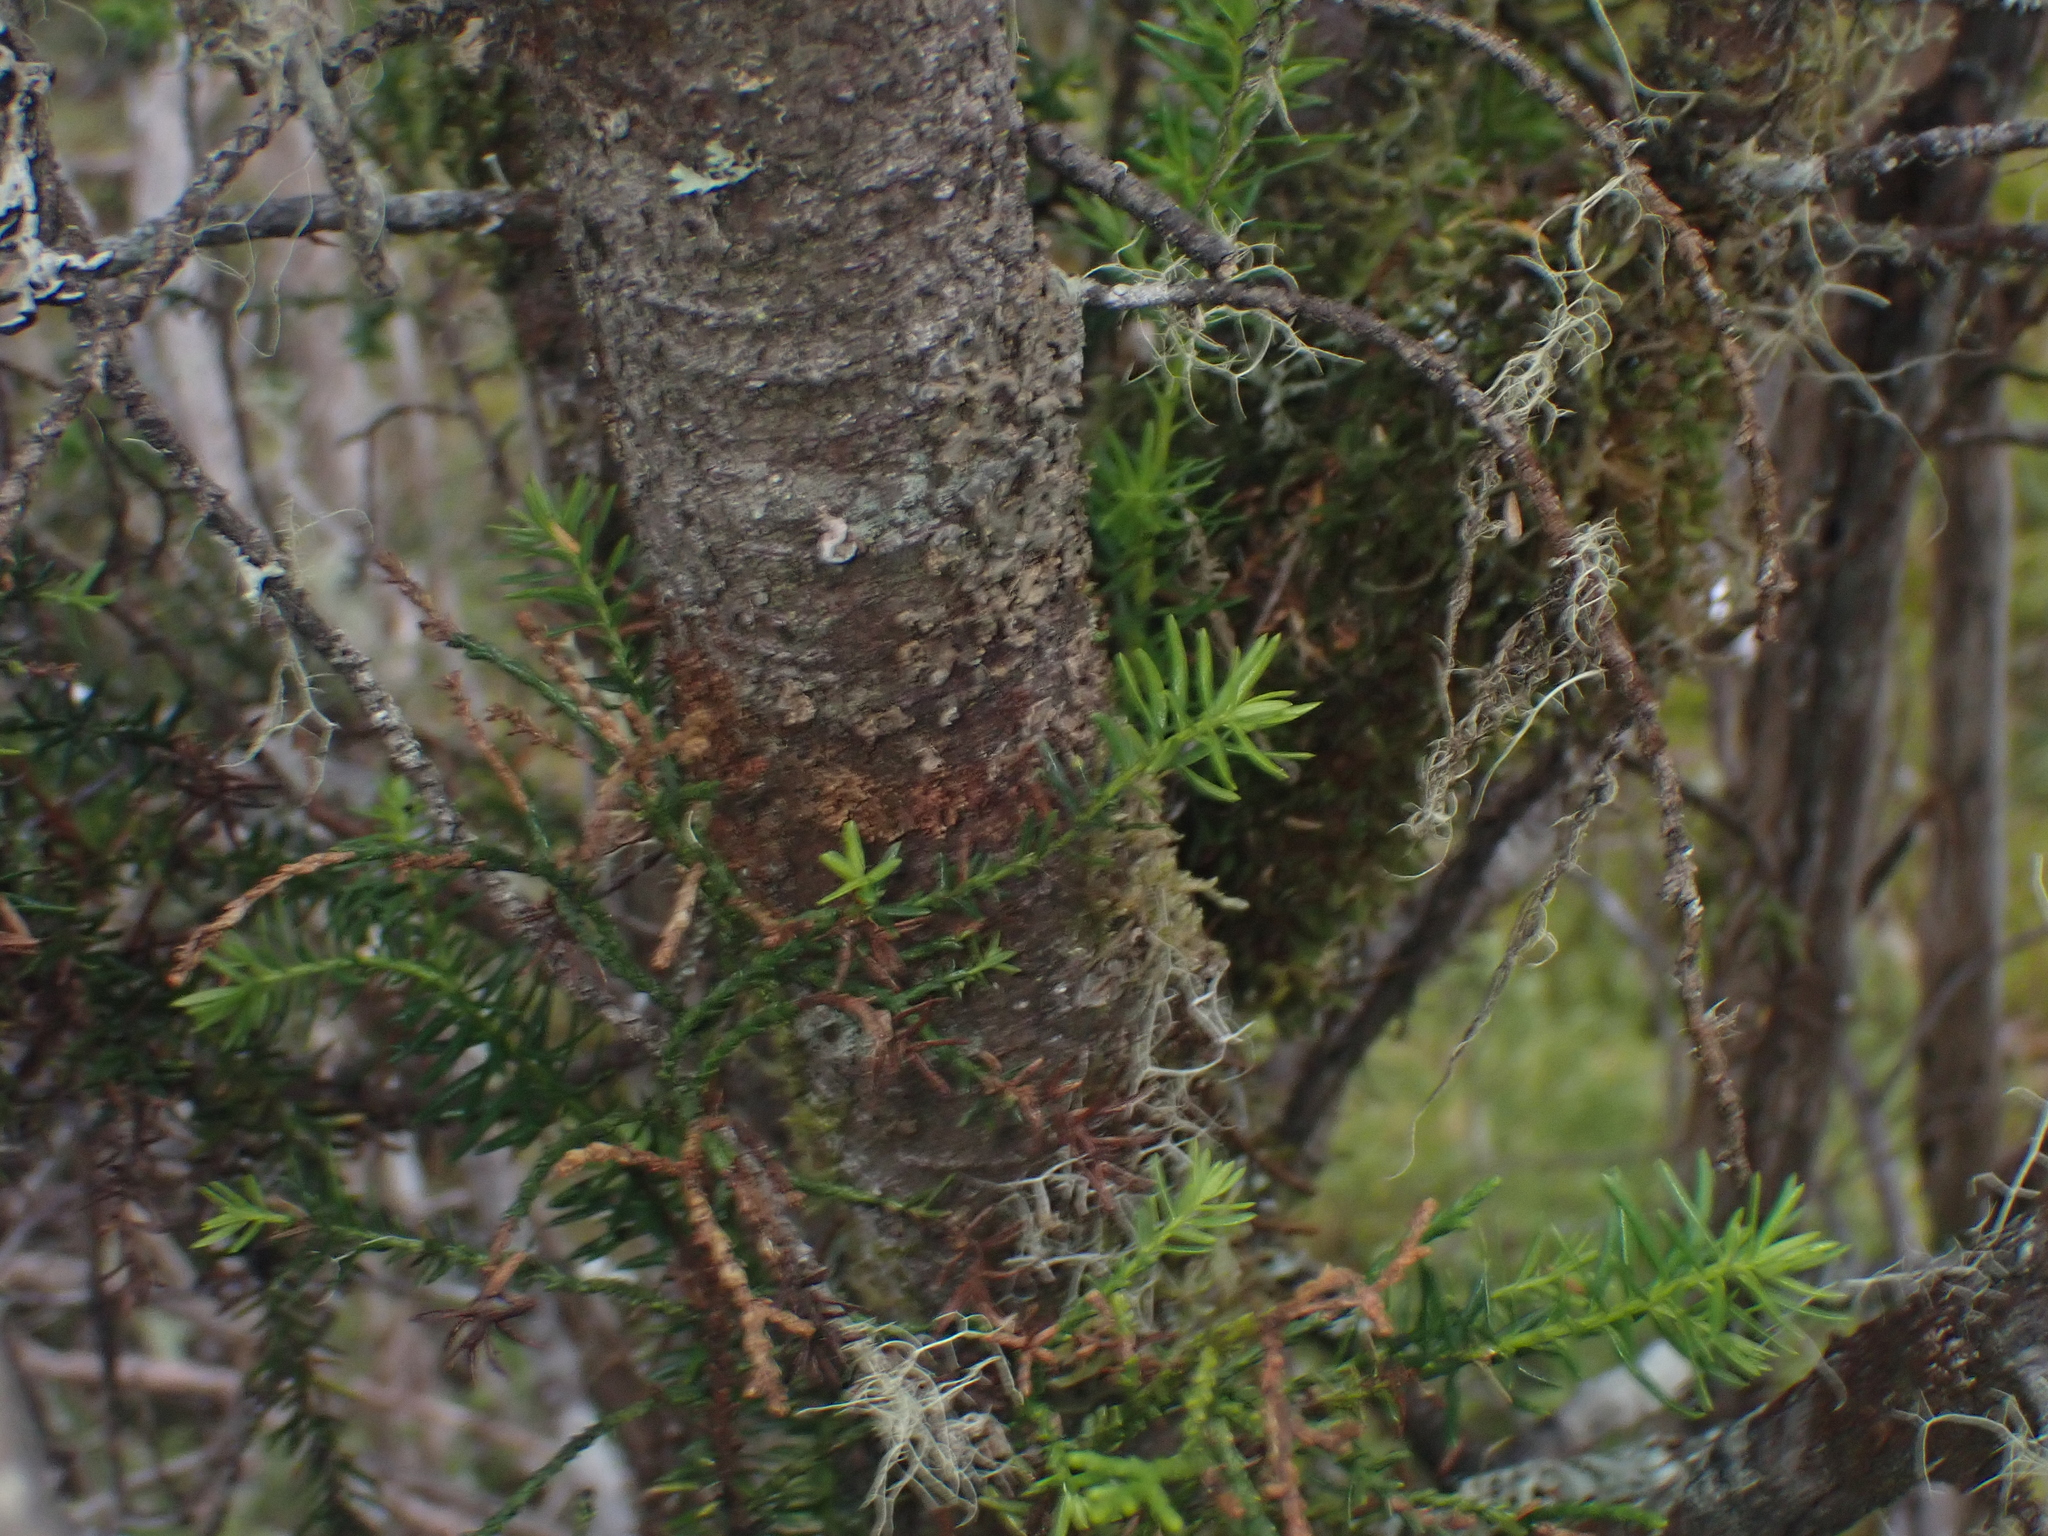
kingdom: Plantae
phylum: Tracheophyta
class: Pinopsida
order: Pinales
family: Podocarpaceae
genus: Halocarpus
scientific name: Halocarpus biformis
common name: Alpine tarwood
